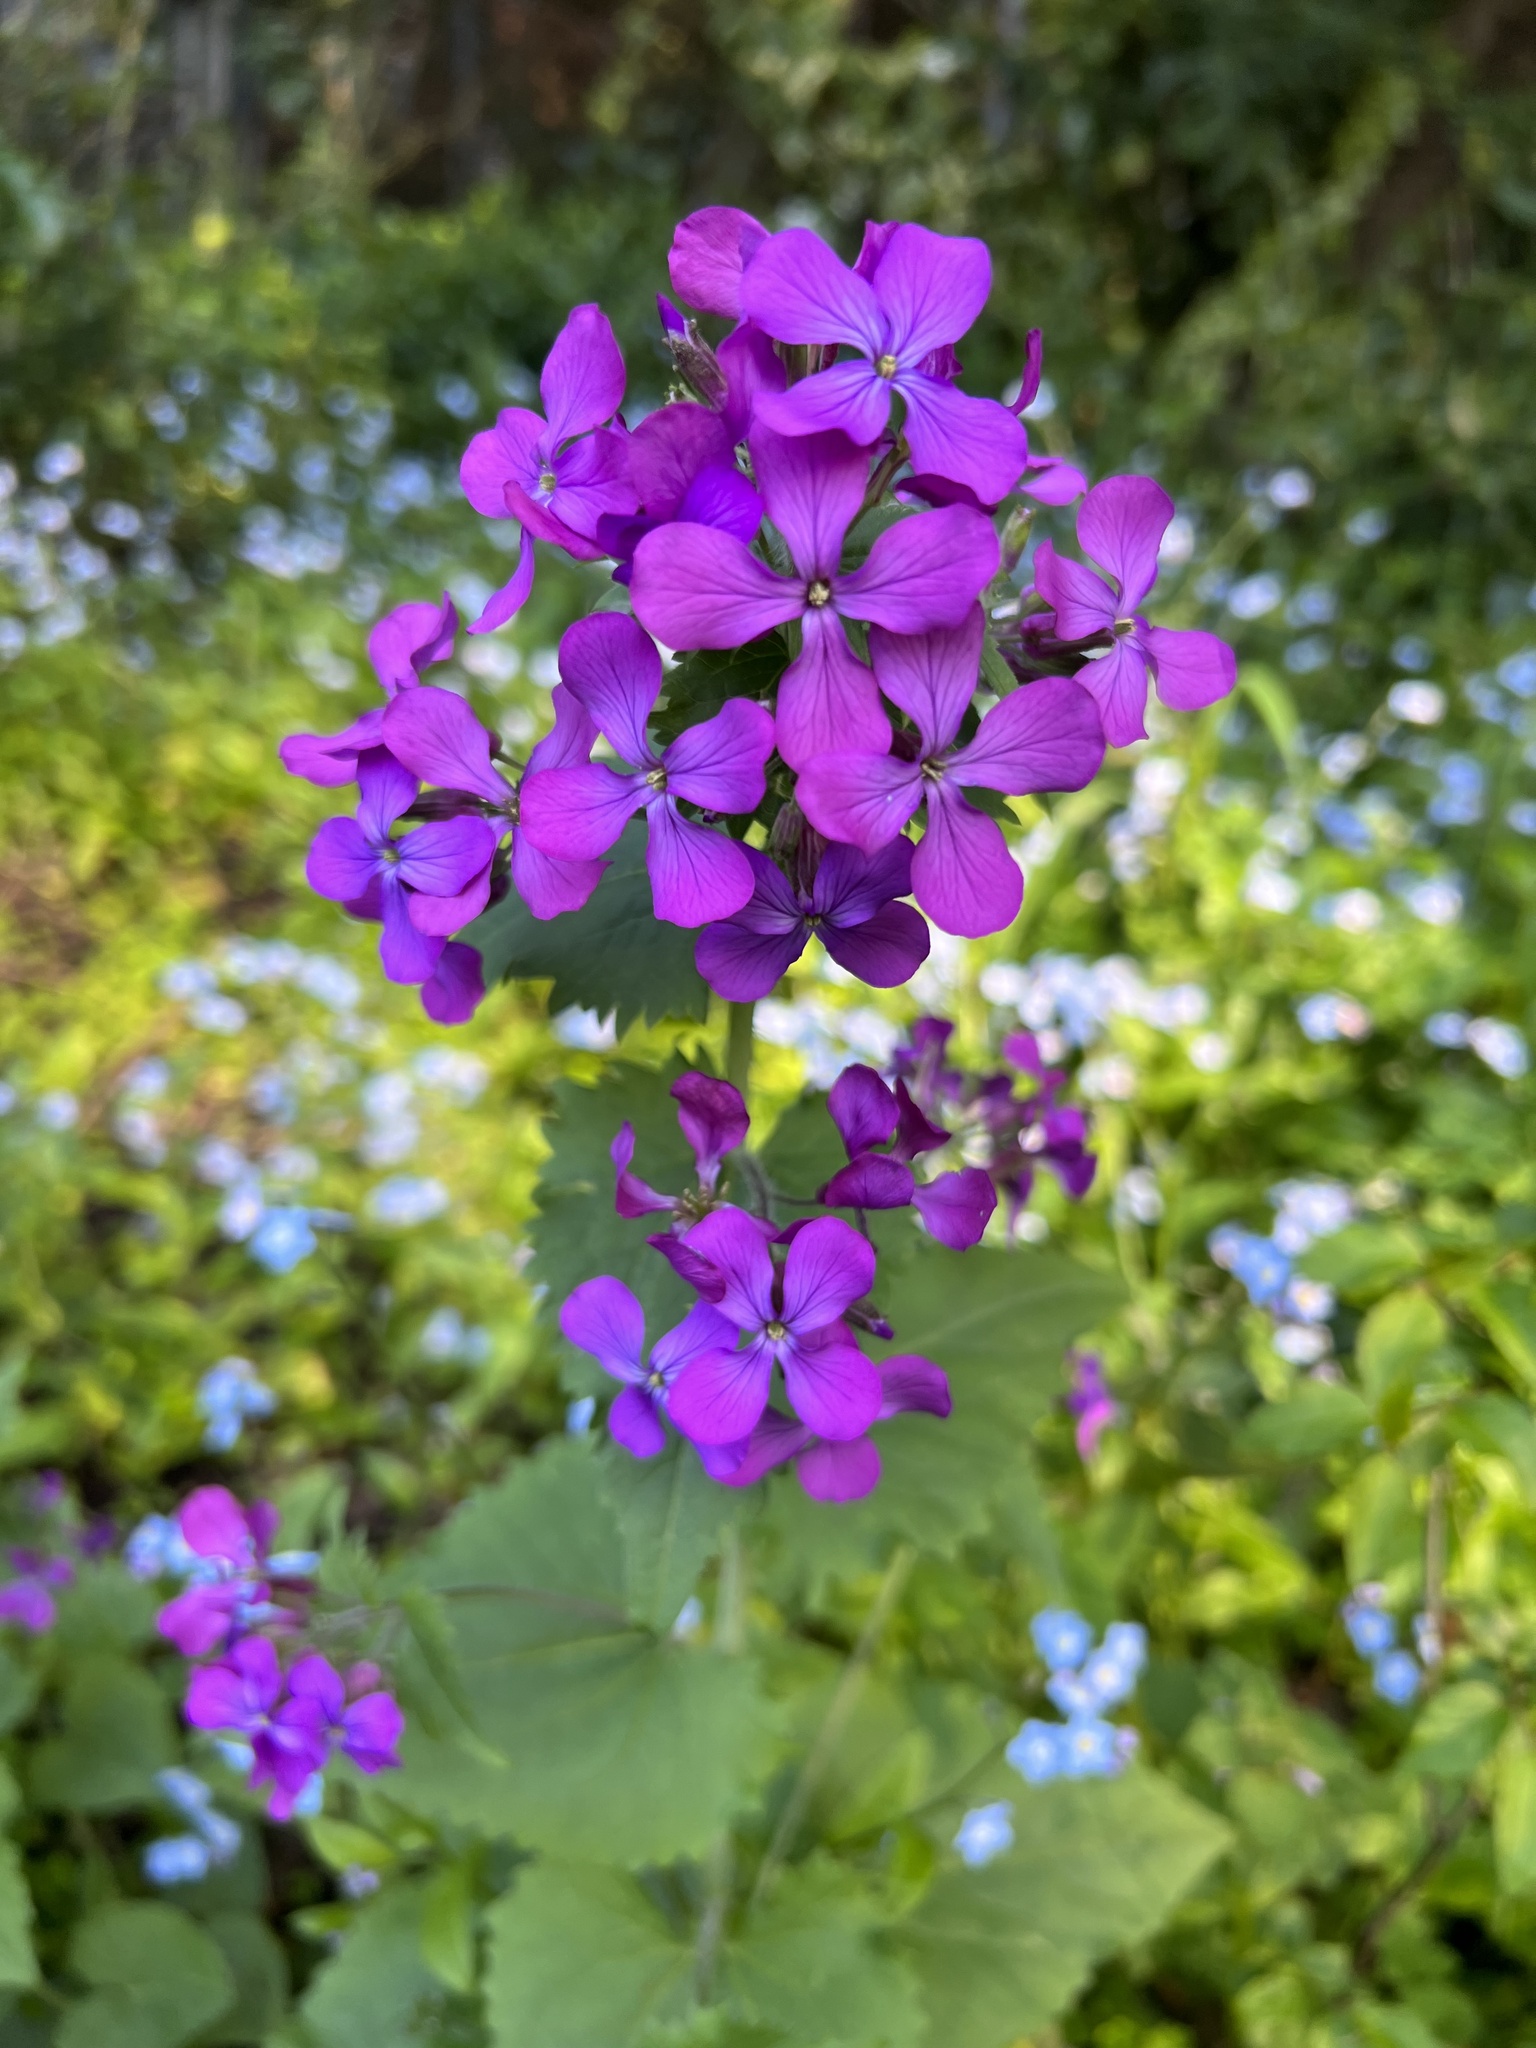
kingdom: Plantae
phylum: Tracheophyta
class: Magnoliopsida
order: Brassicales
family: Brassicaceae
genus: Lunaria
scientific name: Lunaria annua
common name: Honesty
